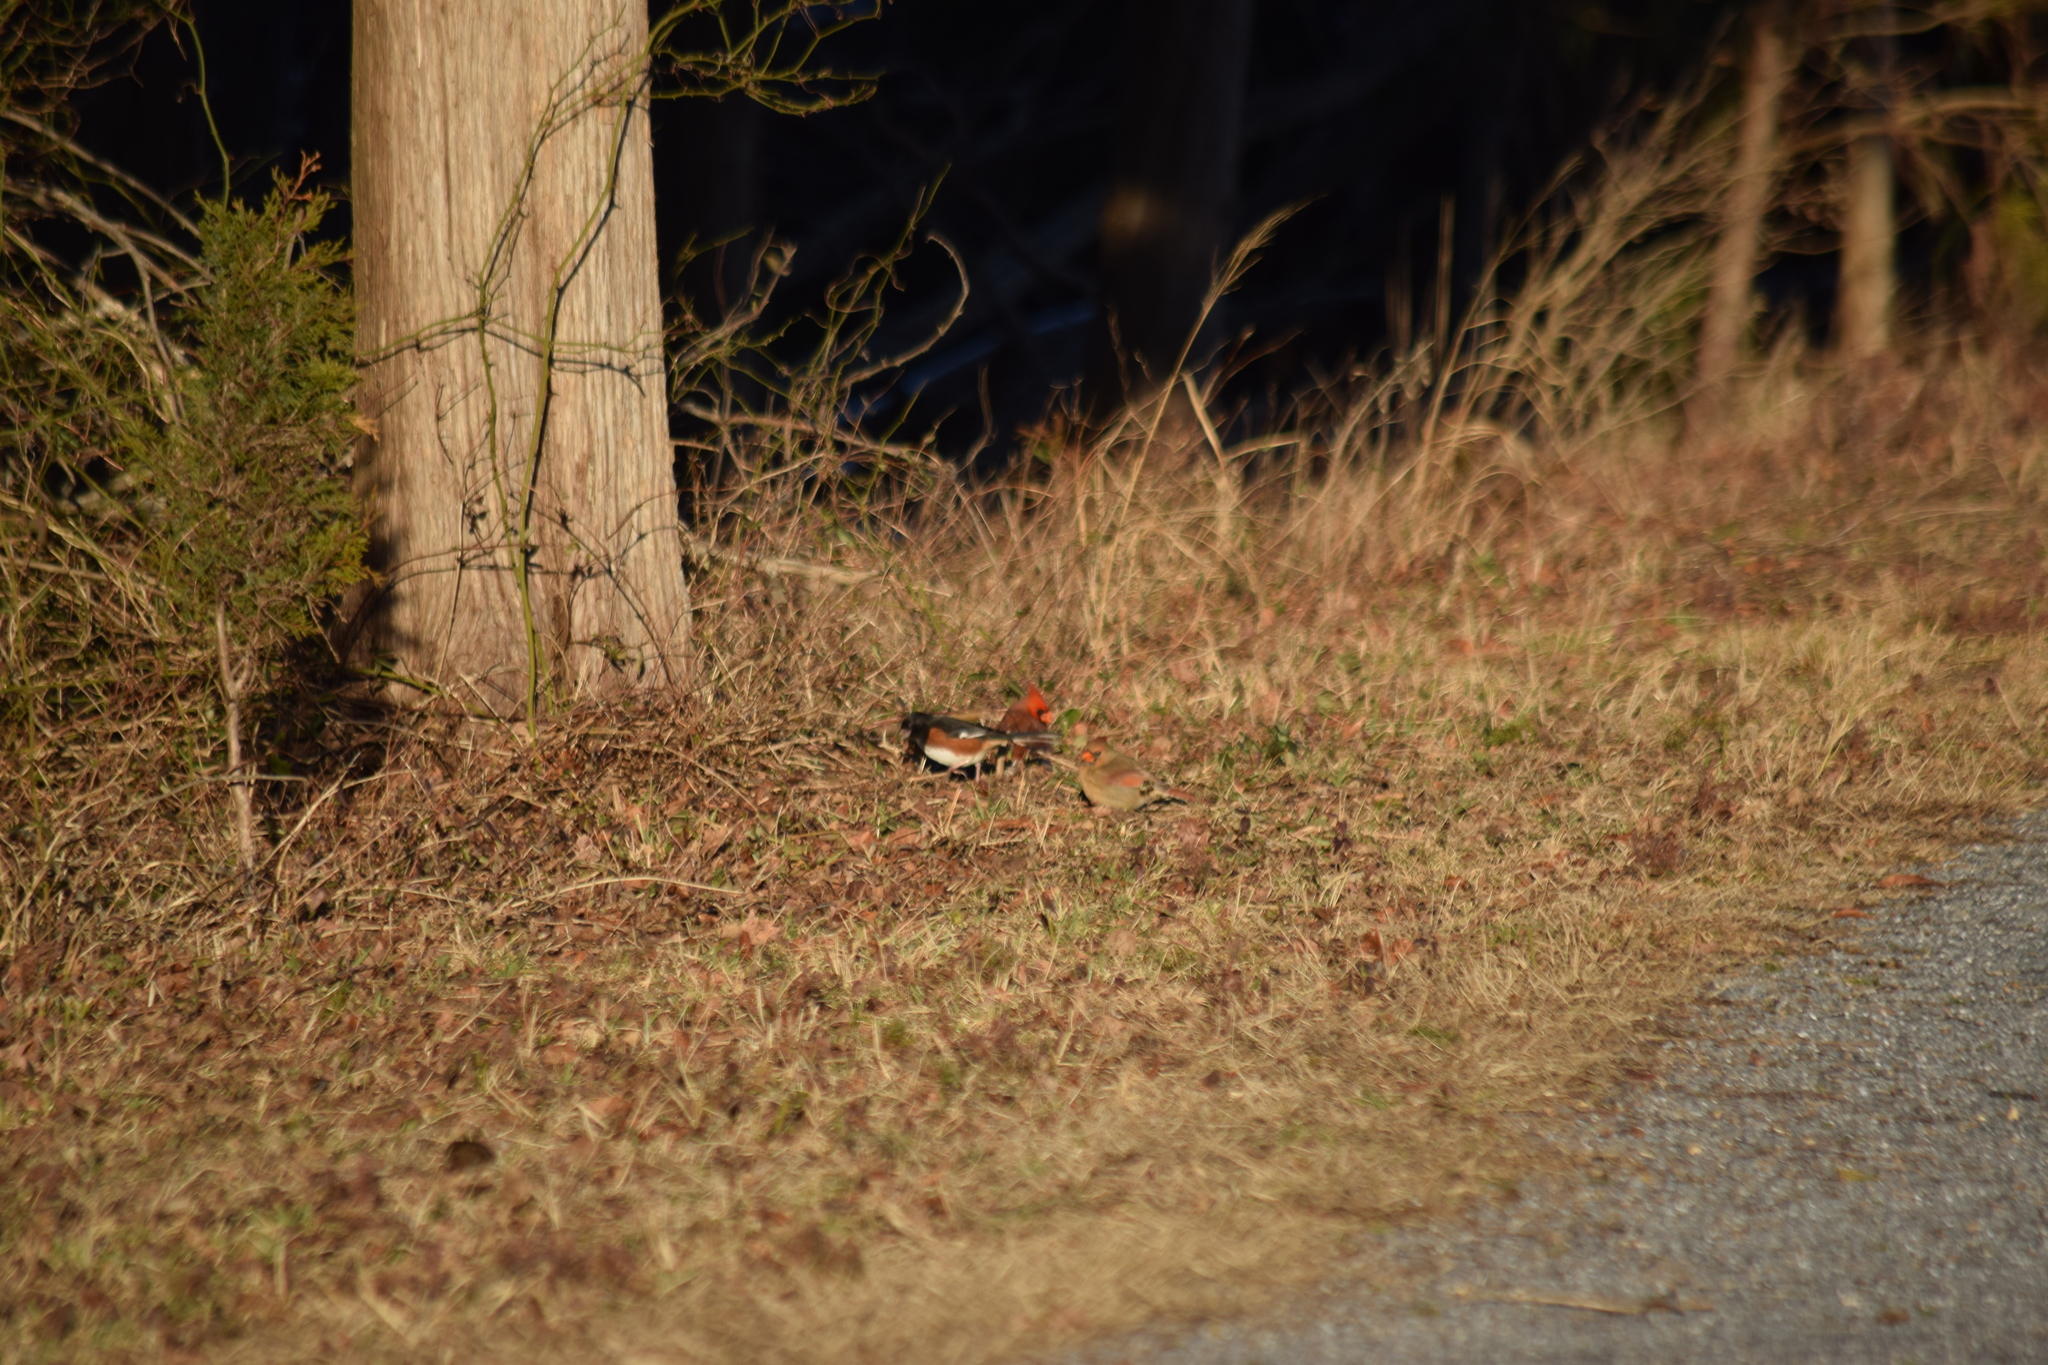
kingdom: Animalia
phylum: Chordata
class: Aves
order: Passeriformes
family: Passerellidae
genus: Pipilo
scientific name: Pipilo erythrophthalmus
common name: Eastern towhee
